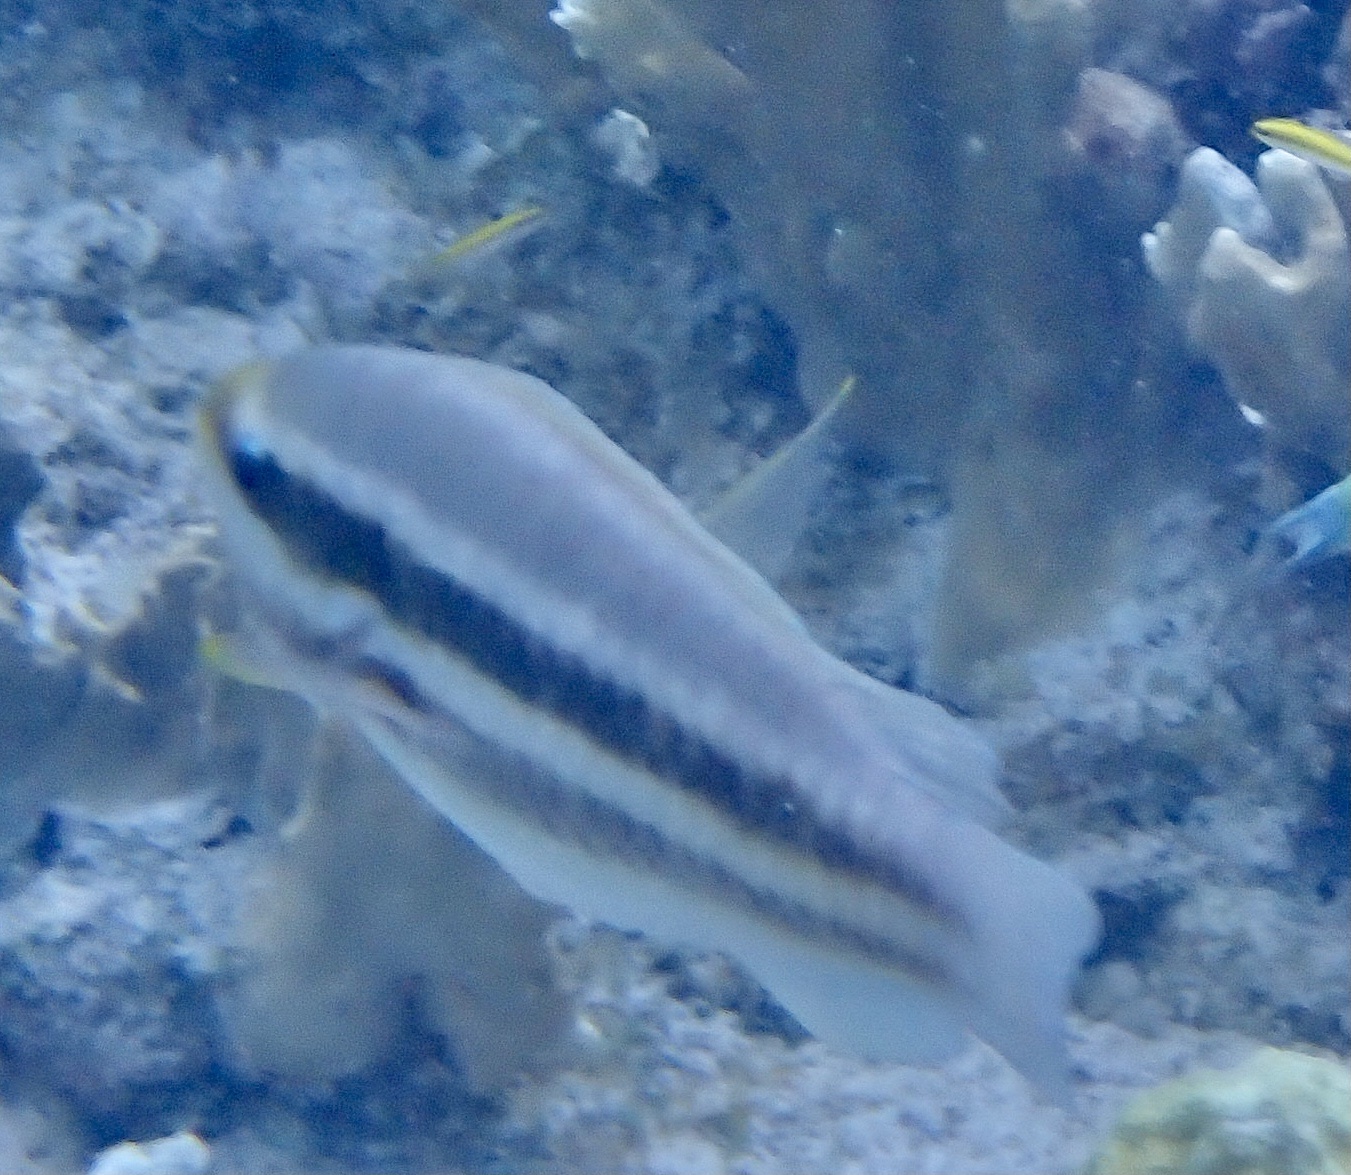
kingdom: Animalia
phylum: Chordata
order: Perciformes
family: Scaridae
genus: Scarus
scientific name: Scarus iseri
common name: Striped parrotfish
